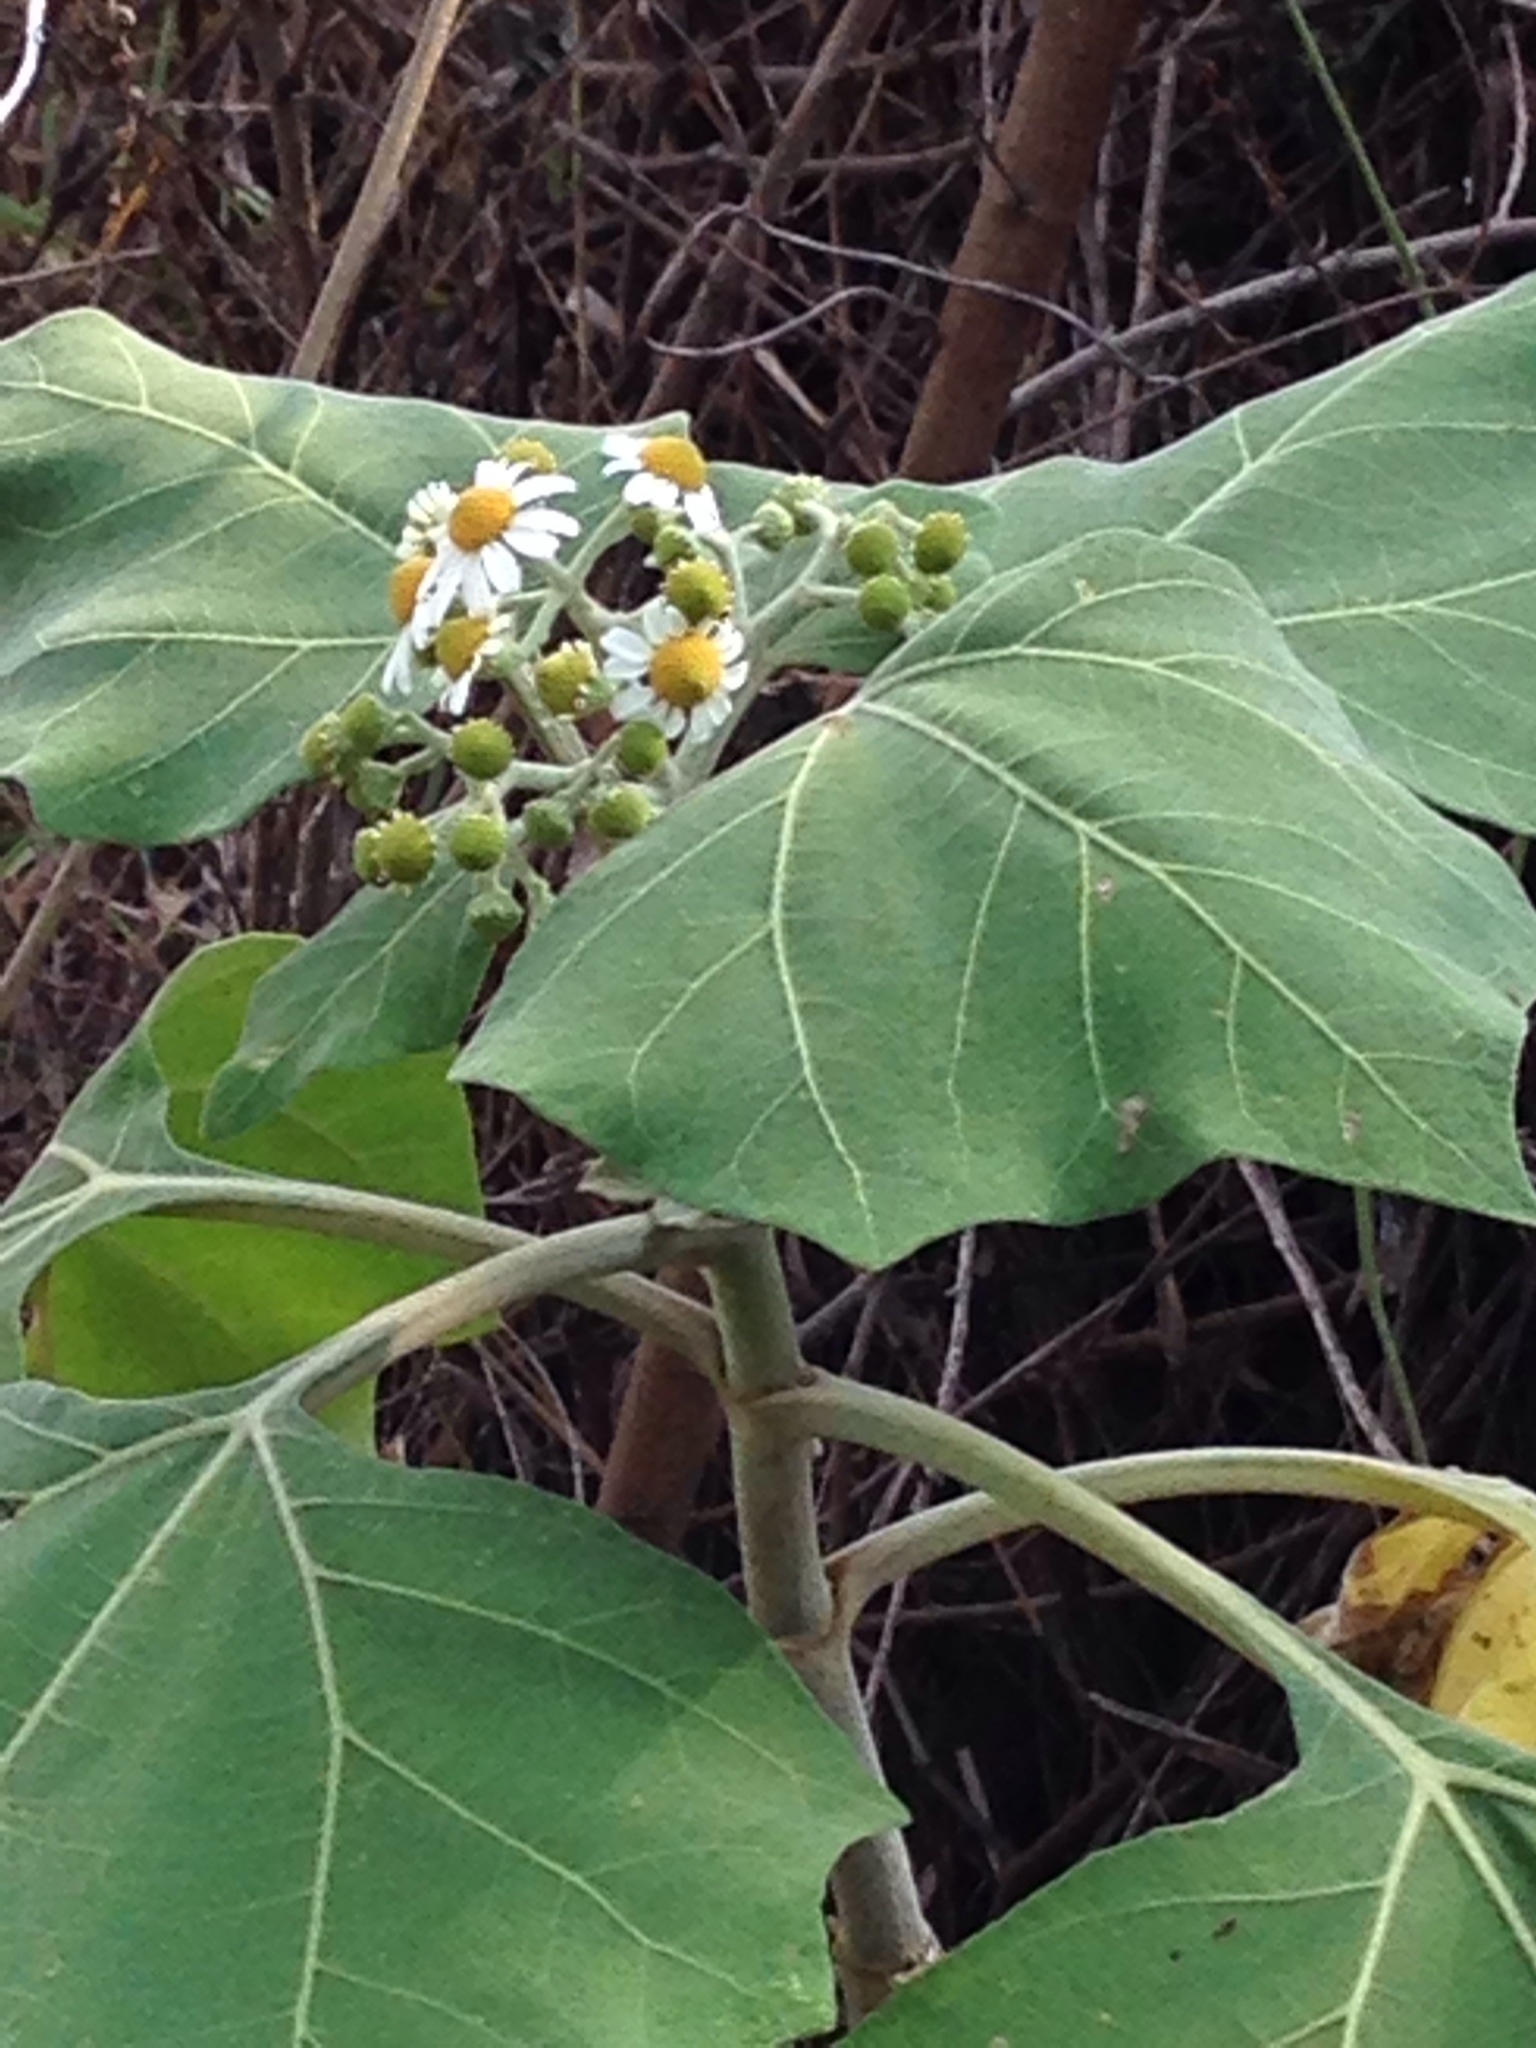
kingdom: Plantae
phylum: Tracheophyta
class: Magnoliopsida
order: Asterales
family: Asteraceae
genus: Podachaenium
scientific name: Podachaenium eminens
